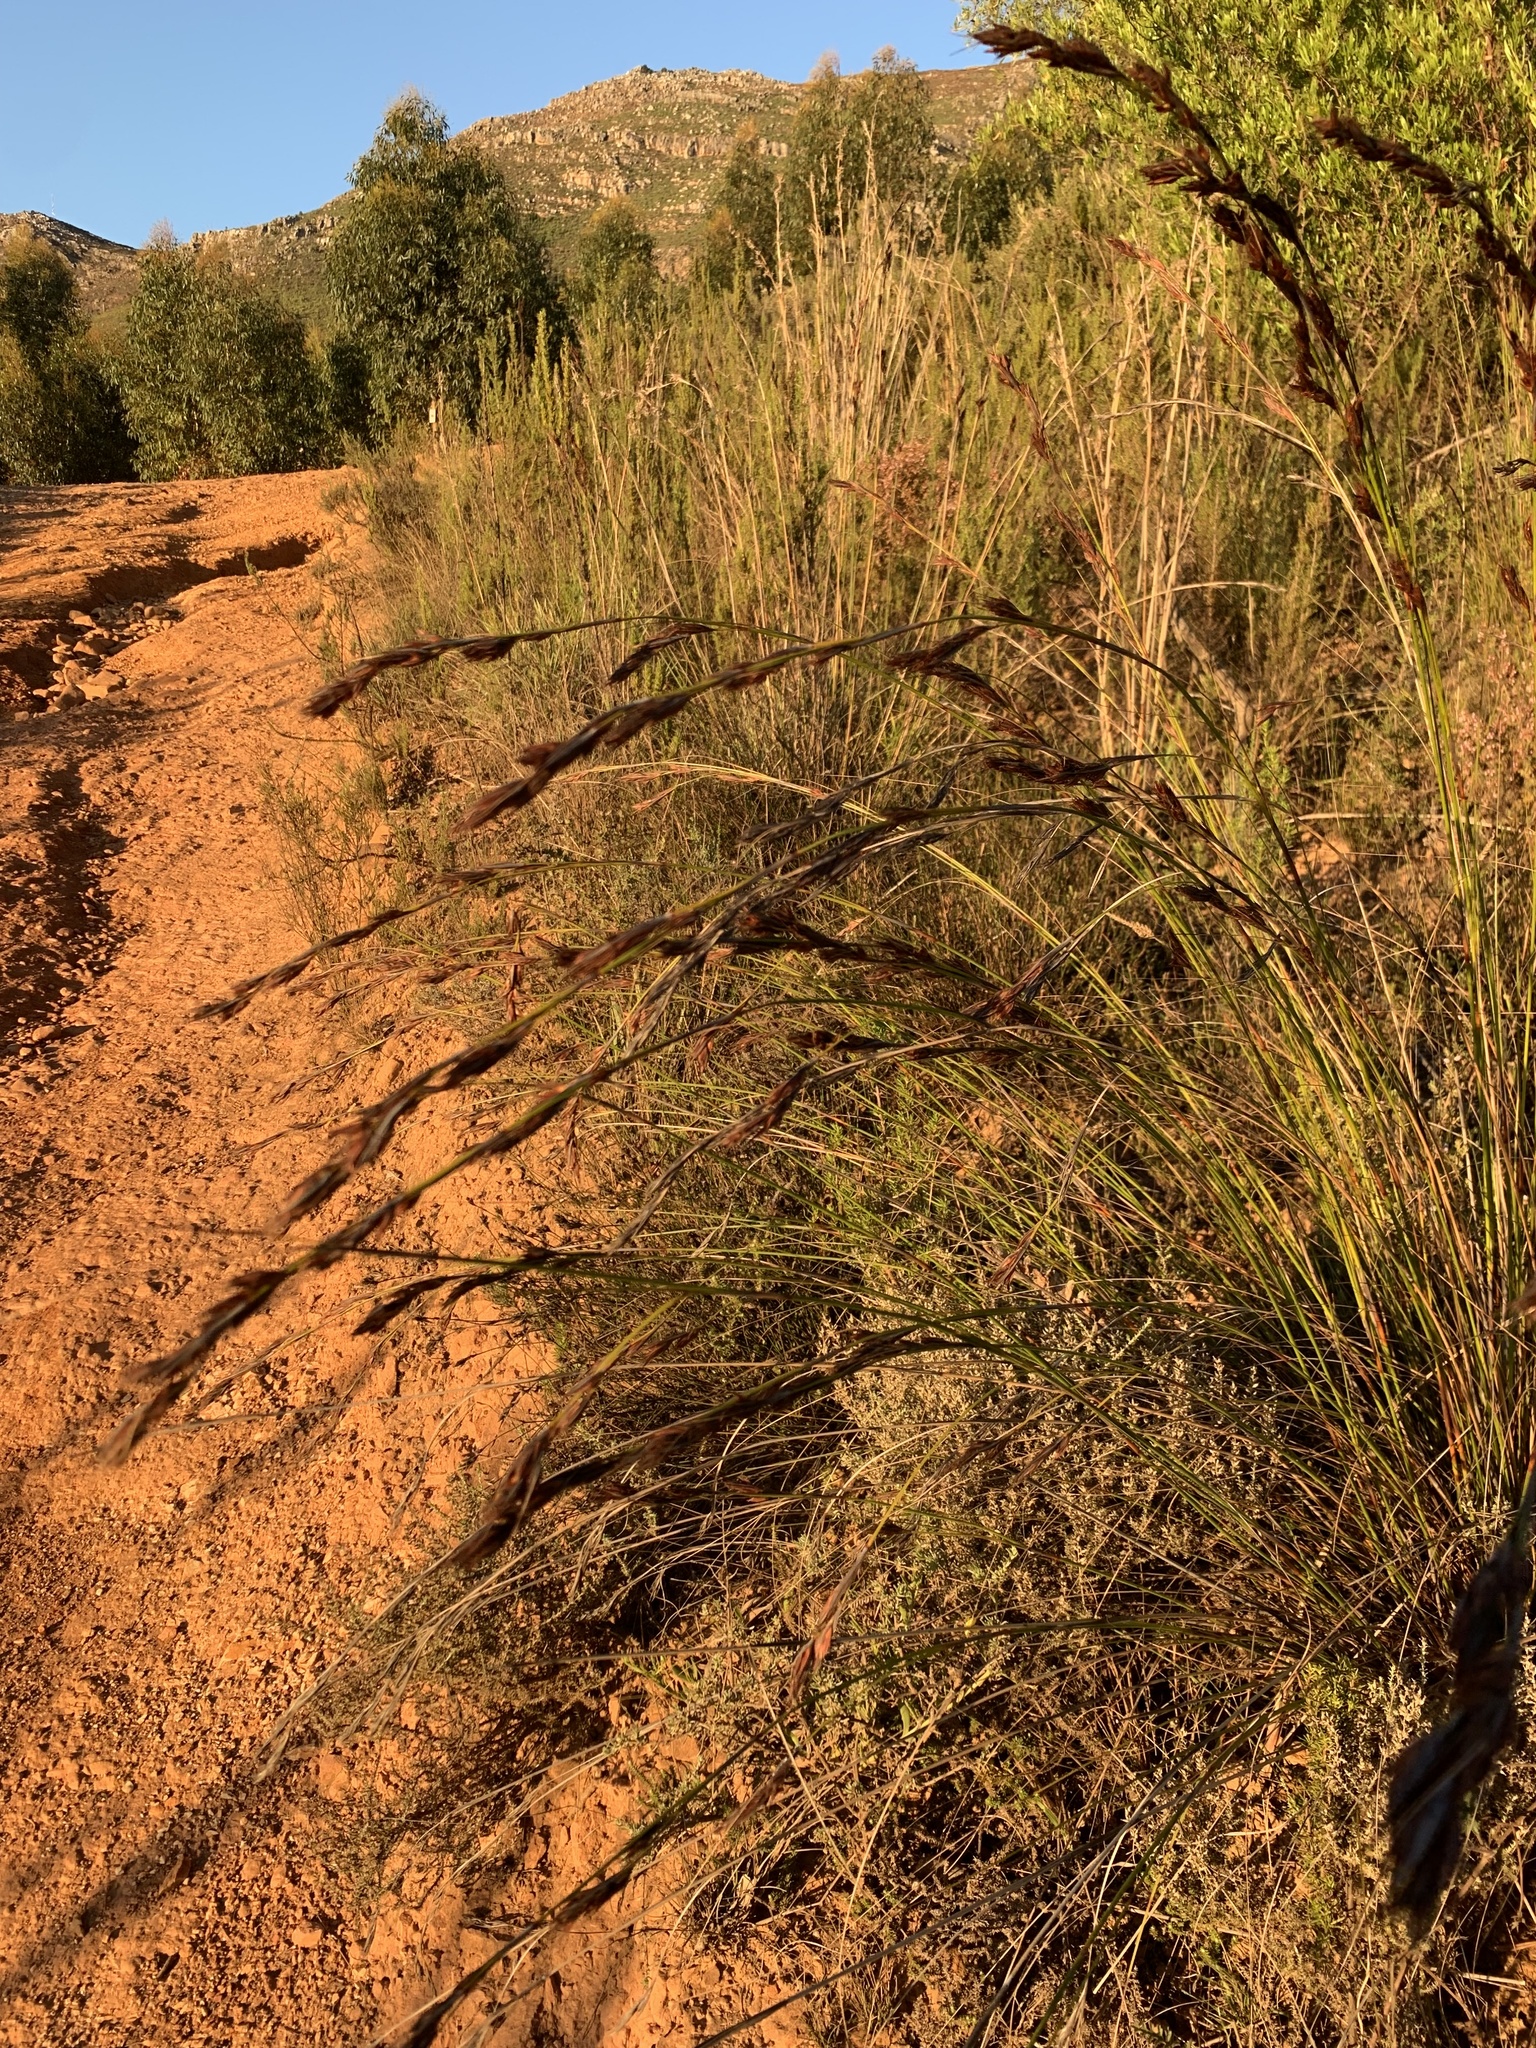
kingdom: Plantae
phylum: Tracheophyta
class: Liliopsida
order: Poales
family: Cyperaceae
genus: Tetraria
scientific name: Tetraria ustulata
